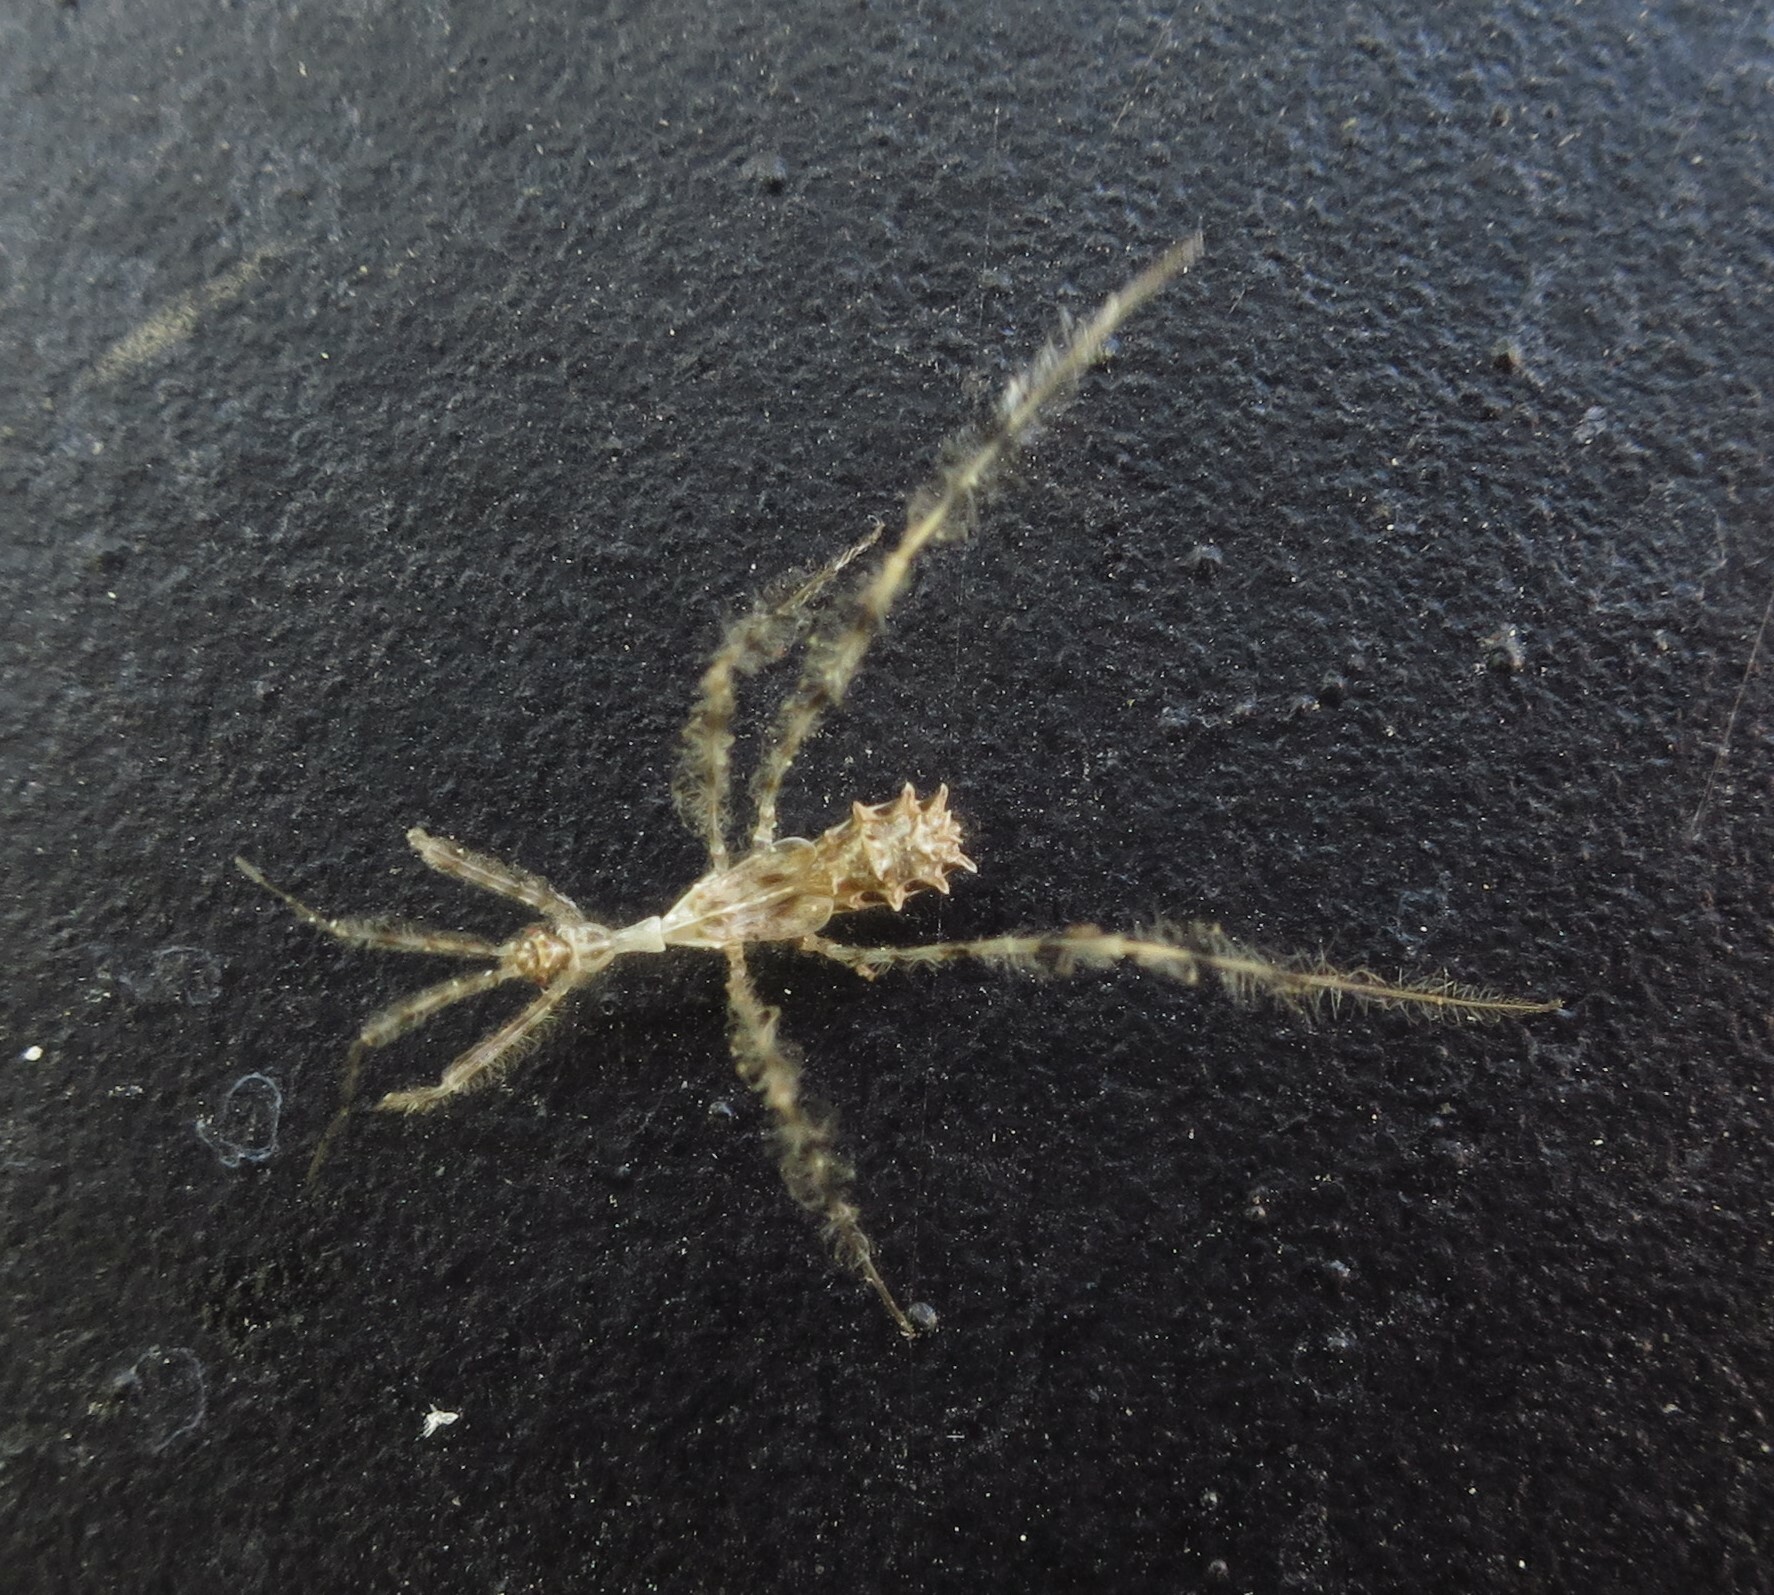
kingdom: Animalia
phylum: Arthropoda
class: Insecta
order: Hemiptera
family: Reduviidae
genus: Stenolemus
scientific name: Stenolemus fraterculus
